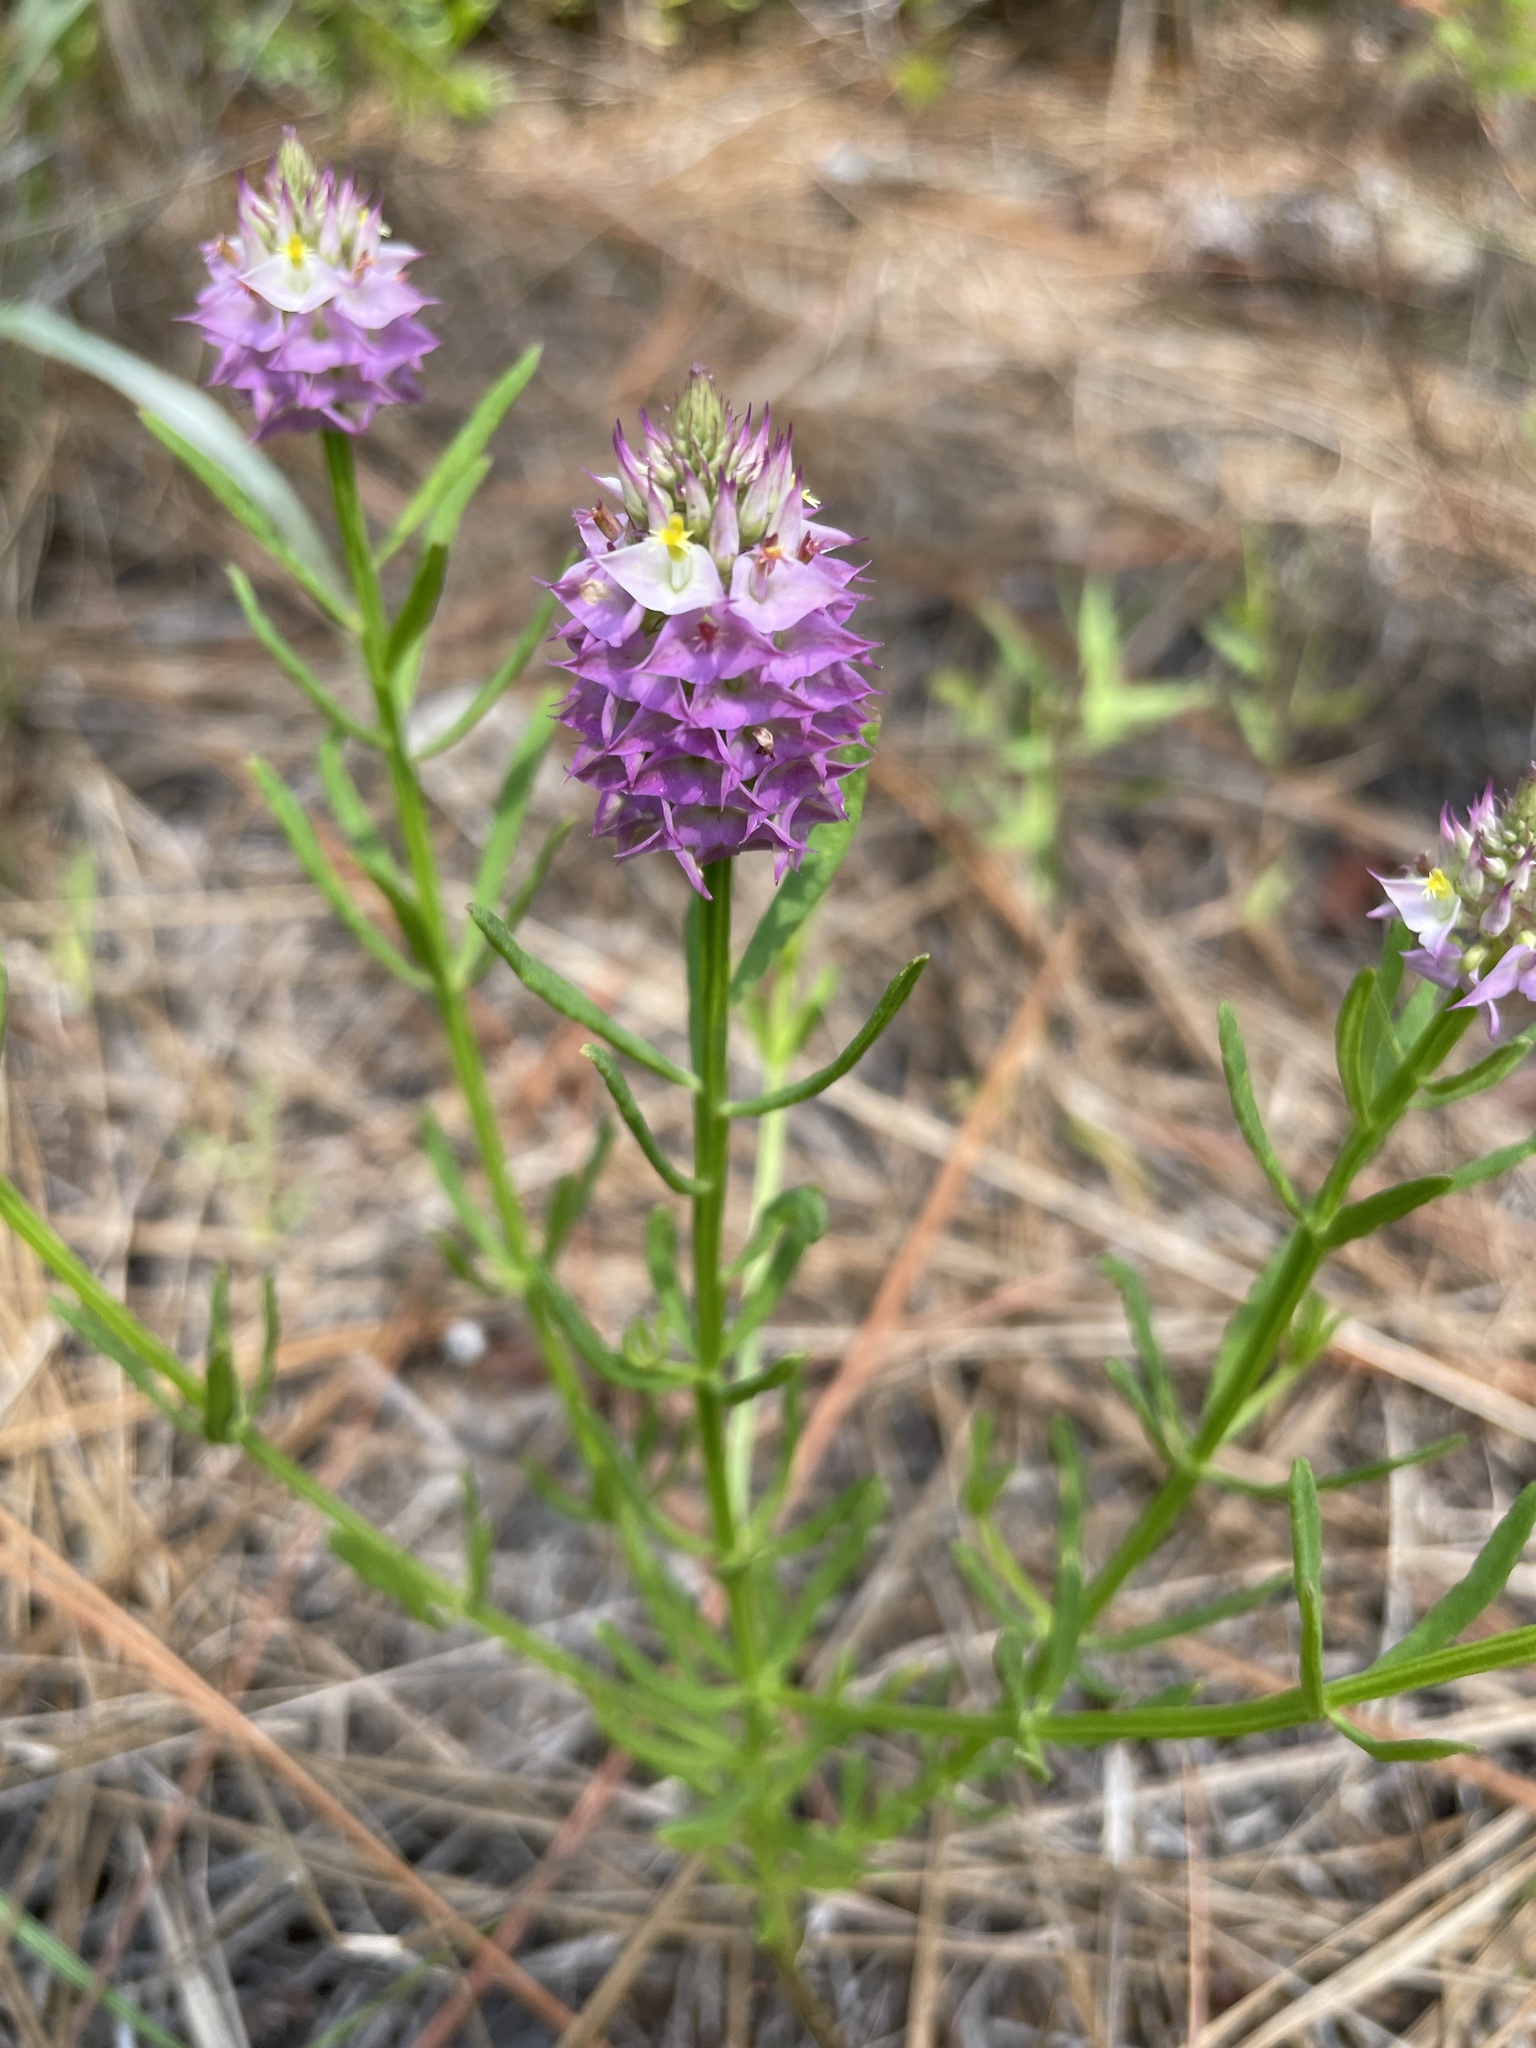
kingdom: Plantae
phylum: Tracheophyta
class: Magnoliopsida
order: Fabales
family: Polygalaceae
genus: Polygala
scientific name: Polygala cruciata
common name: Drumheads
